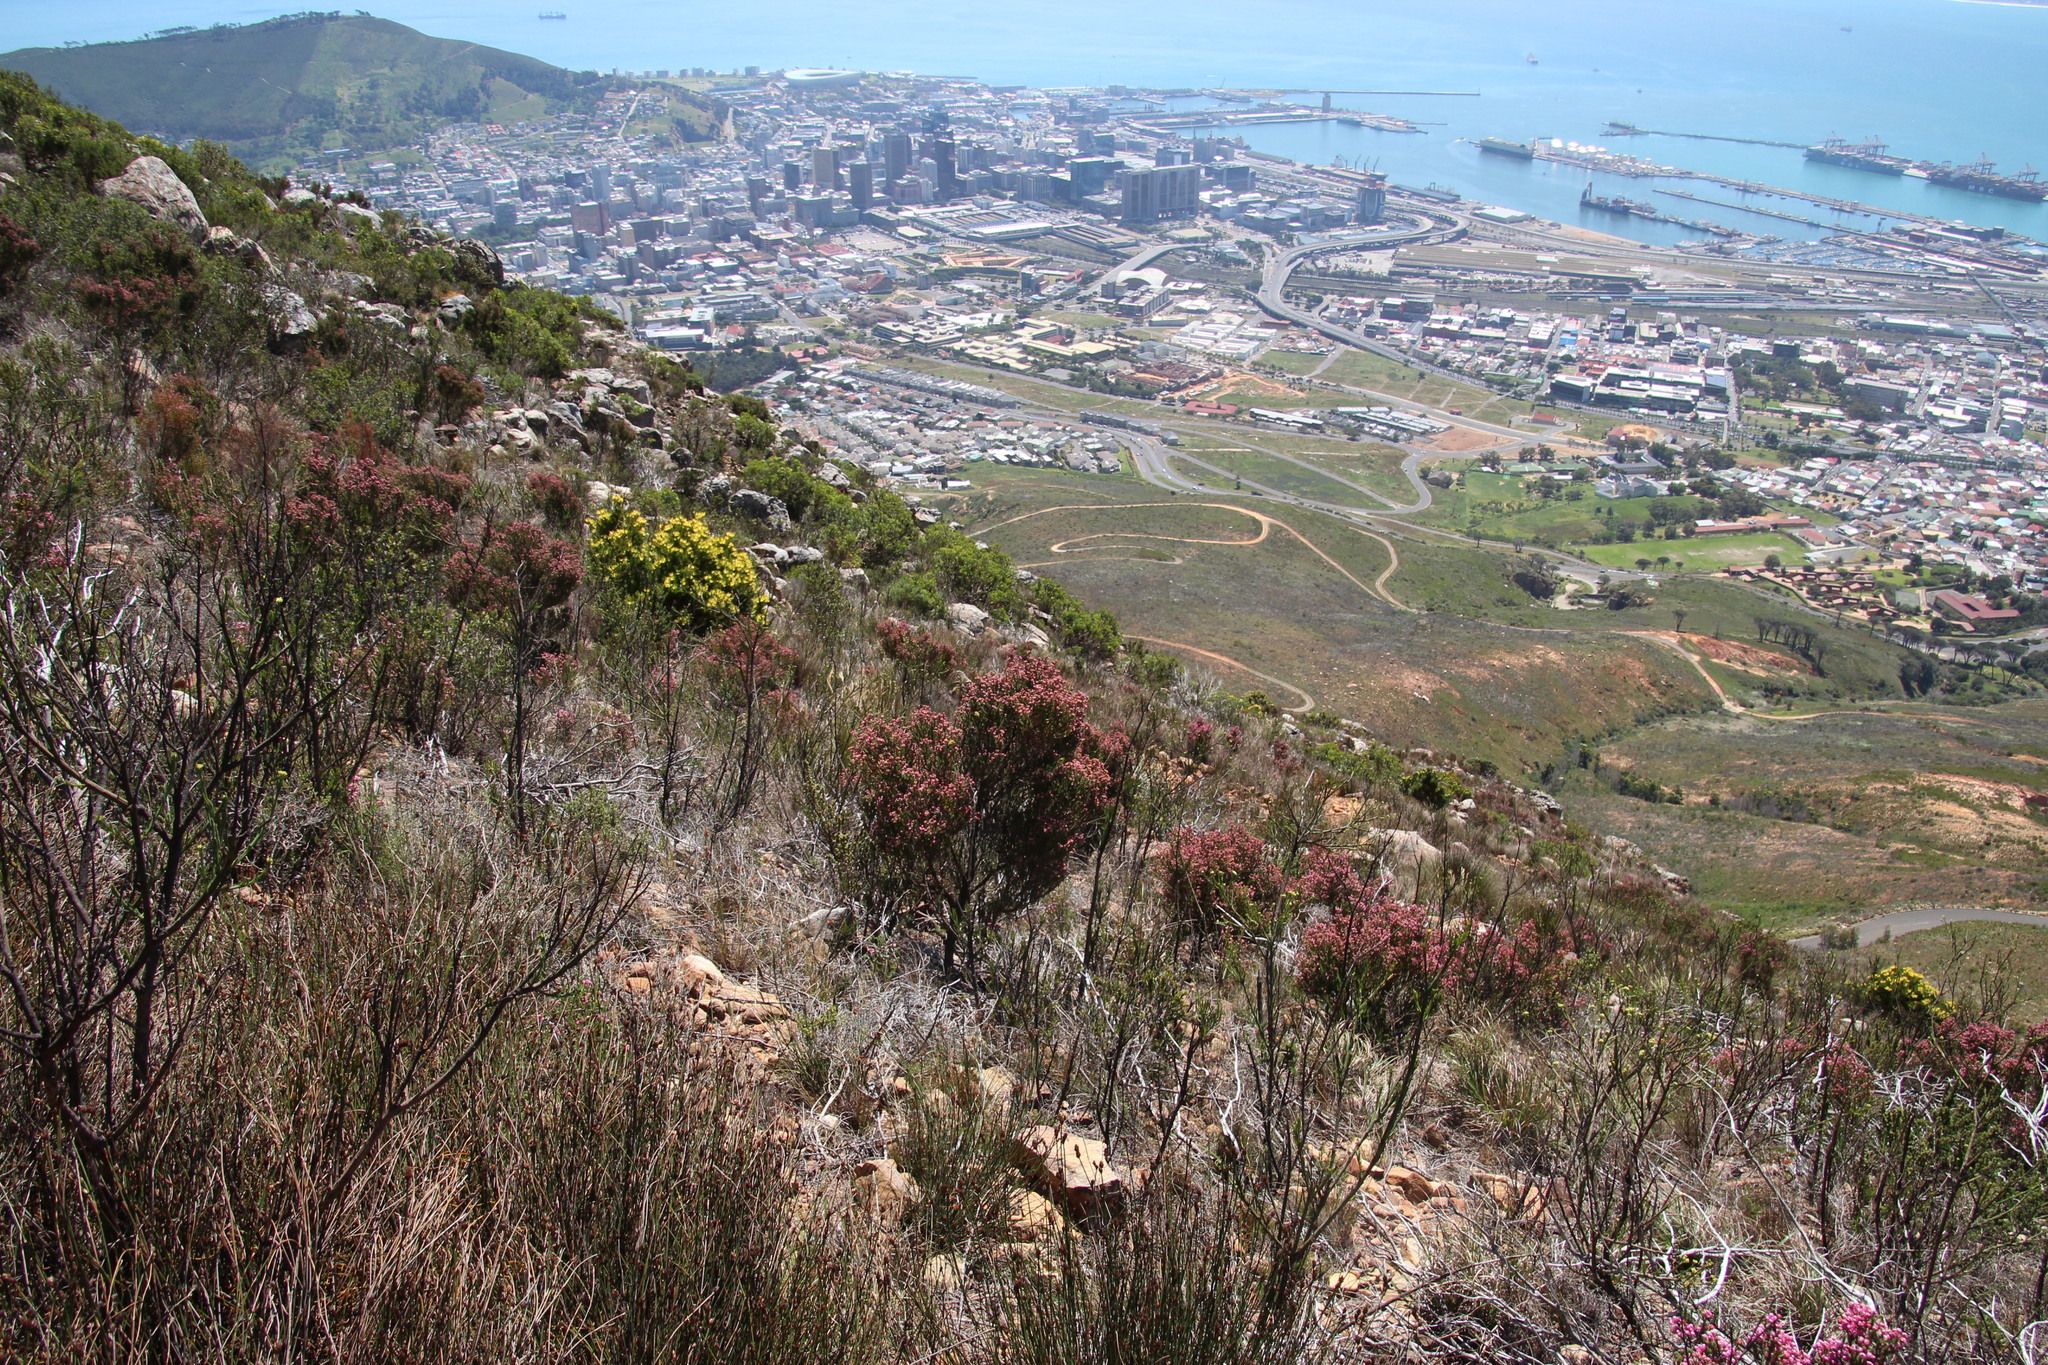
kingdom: Plantae
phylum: Tracheophyta
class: Magnoliopsida
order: Ericales
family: Ericaceae
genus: Erica
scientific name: Erica baccans
